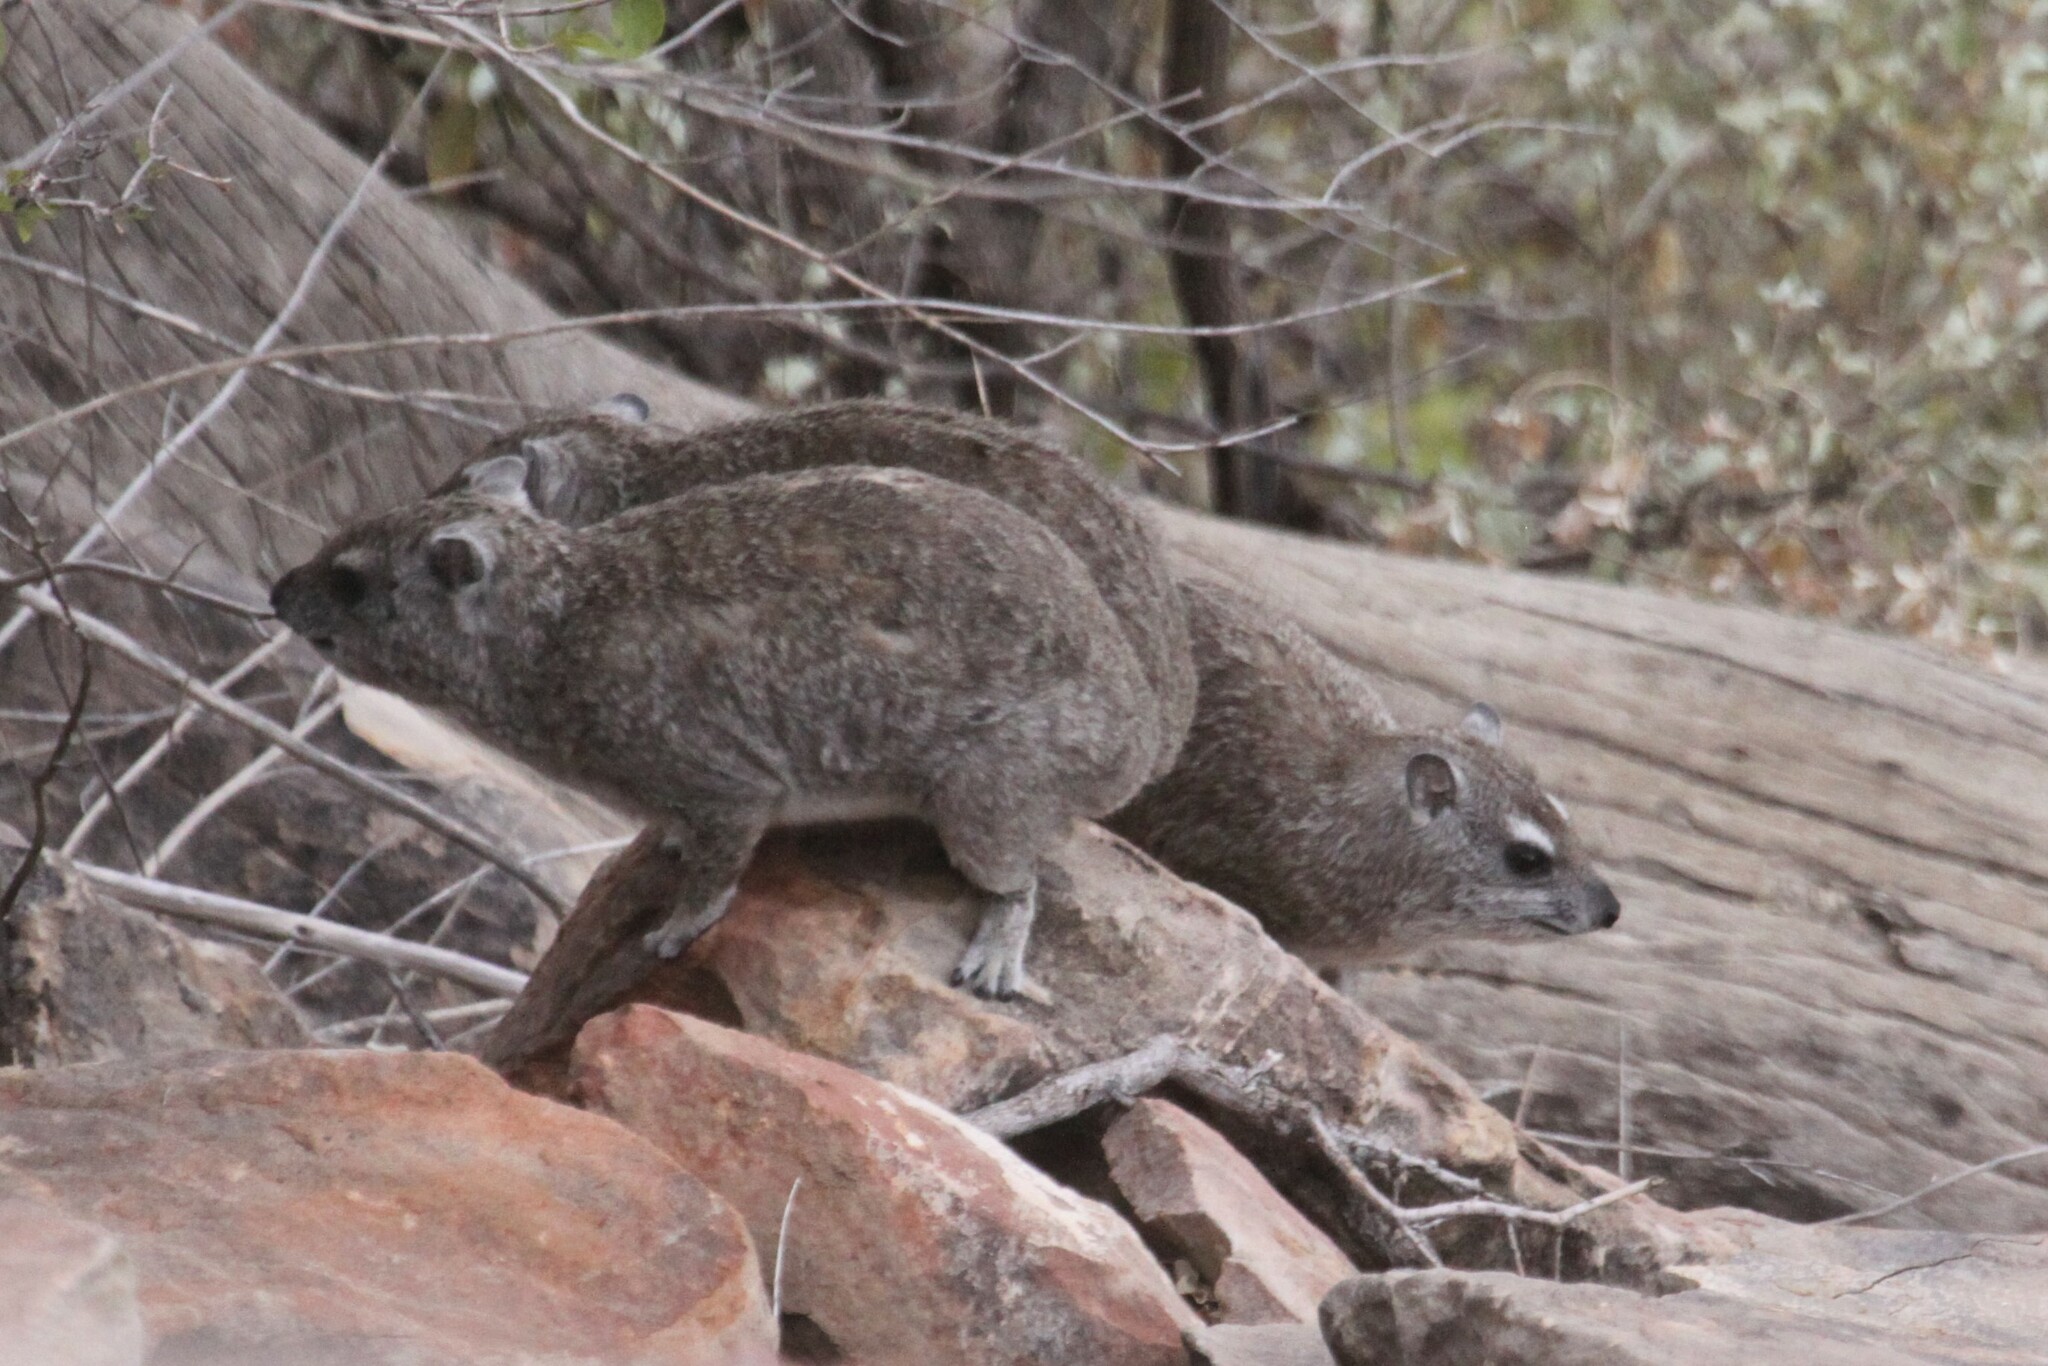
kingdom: Animalia
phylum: Chordata
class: Mammalia
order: Hyracoidea
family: Procaviidae
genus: Heterohyrax
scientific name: Heterohyrax brucei
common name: Bush hyrax
